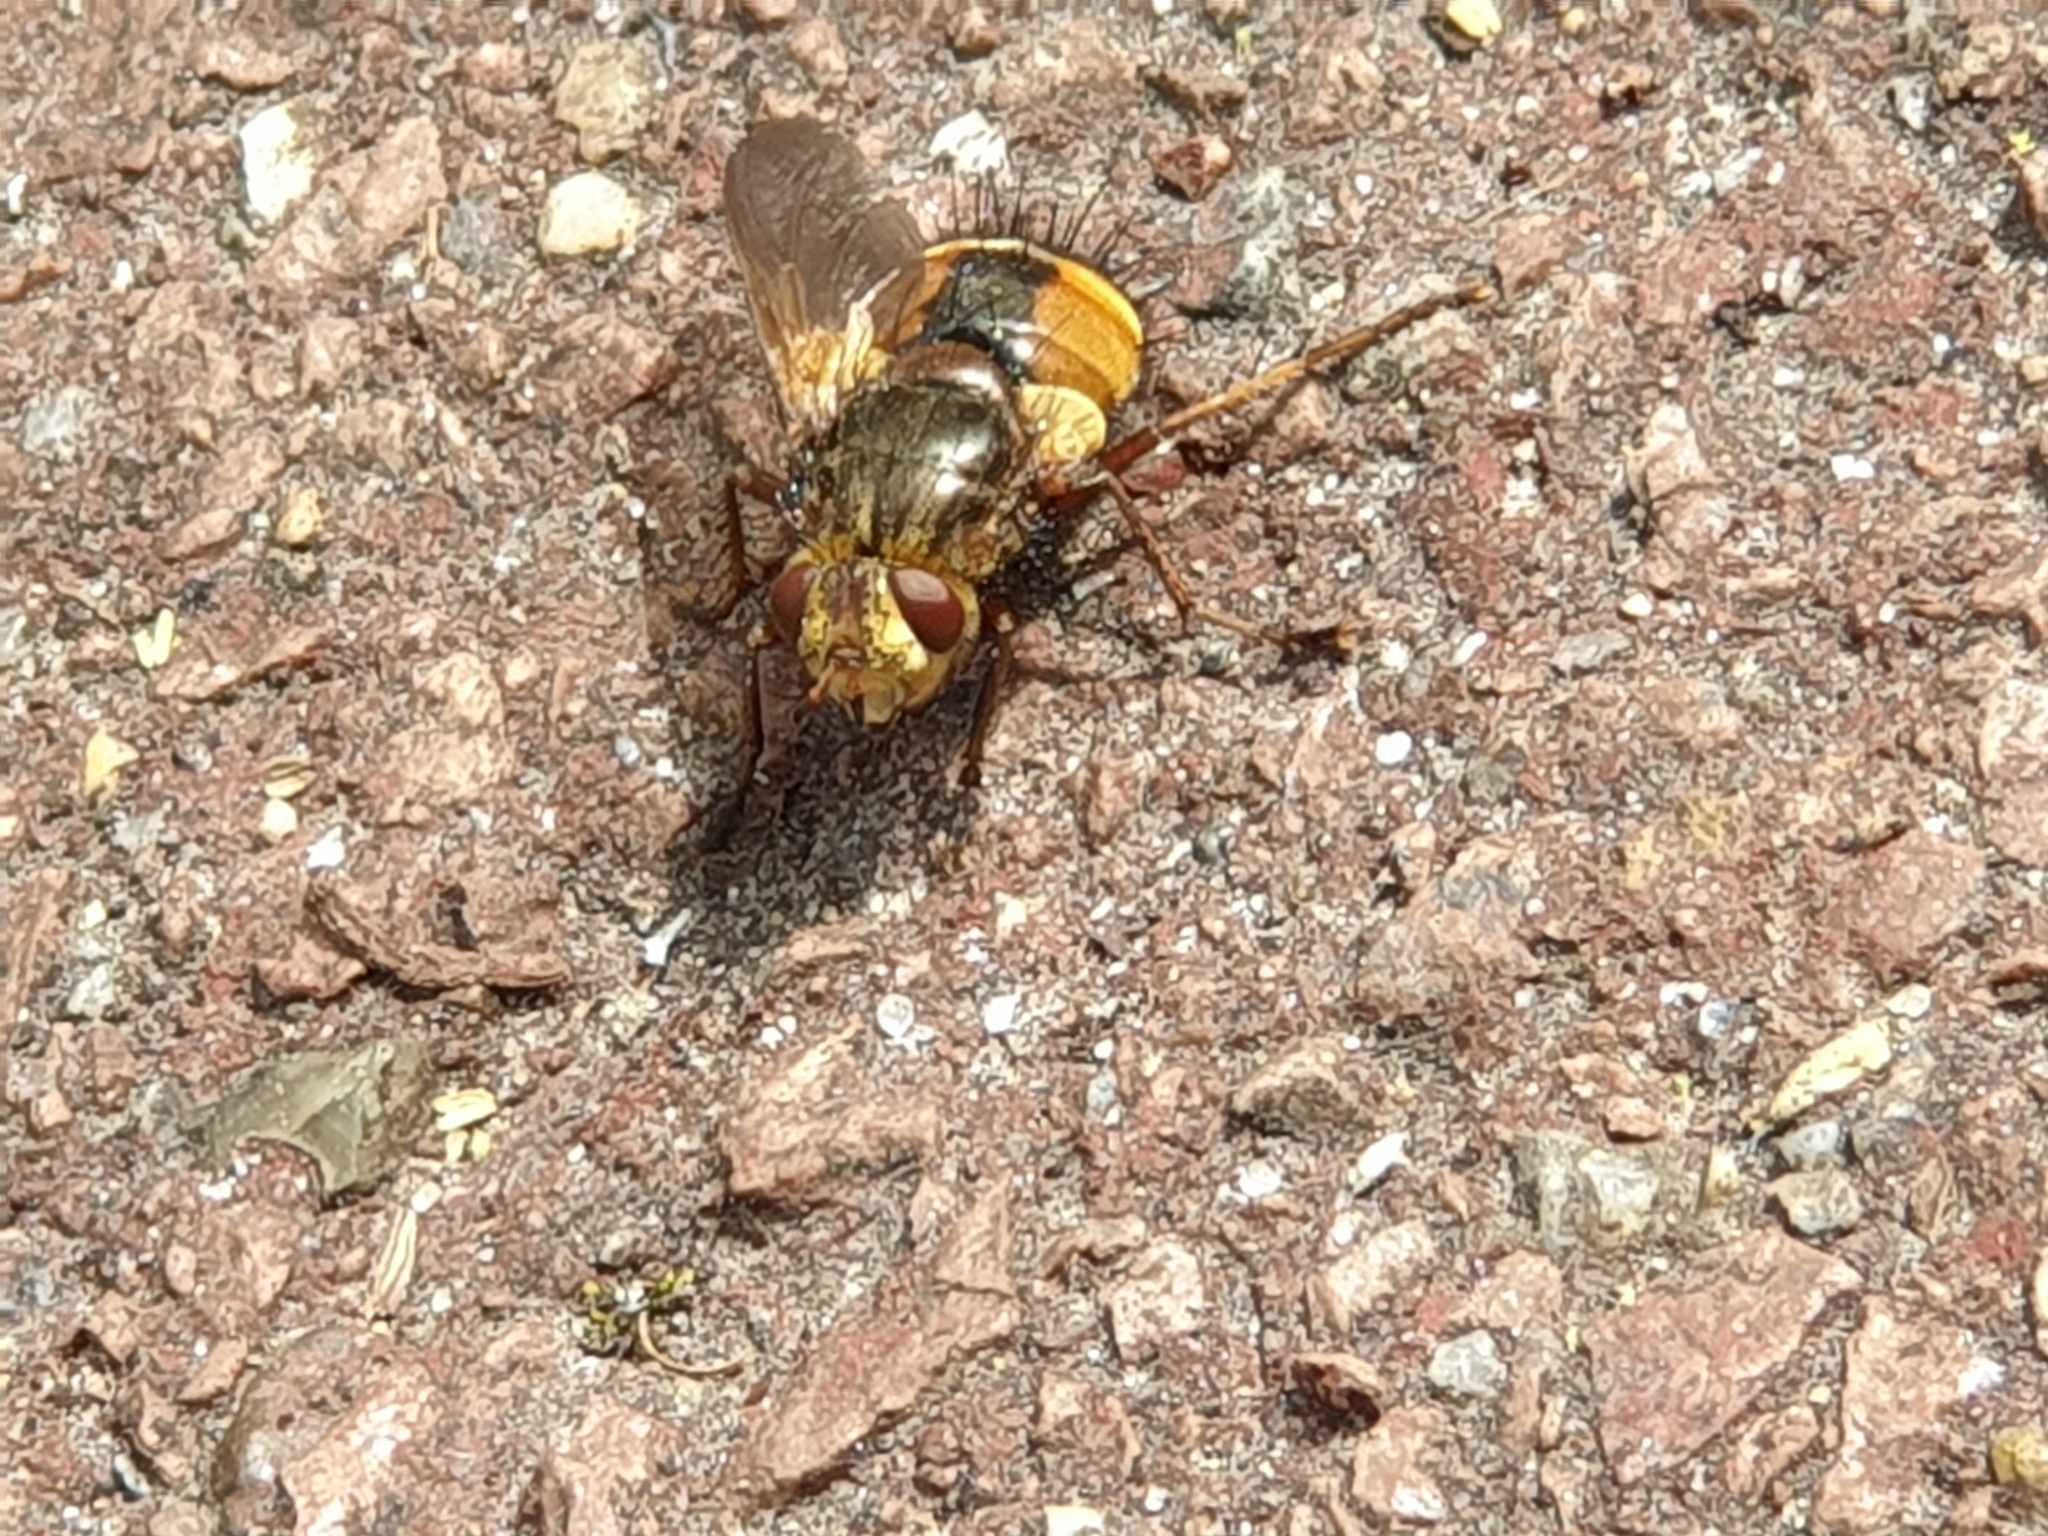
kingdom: Animalia
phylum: Arthropoda
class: Insecta
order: Diptera
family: Tachinidae
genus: Tachina
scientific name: Tachina fera
